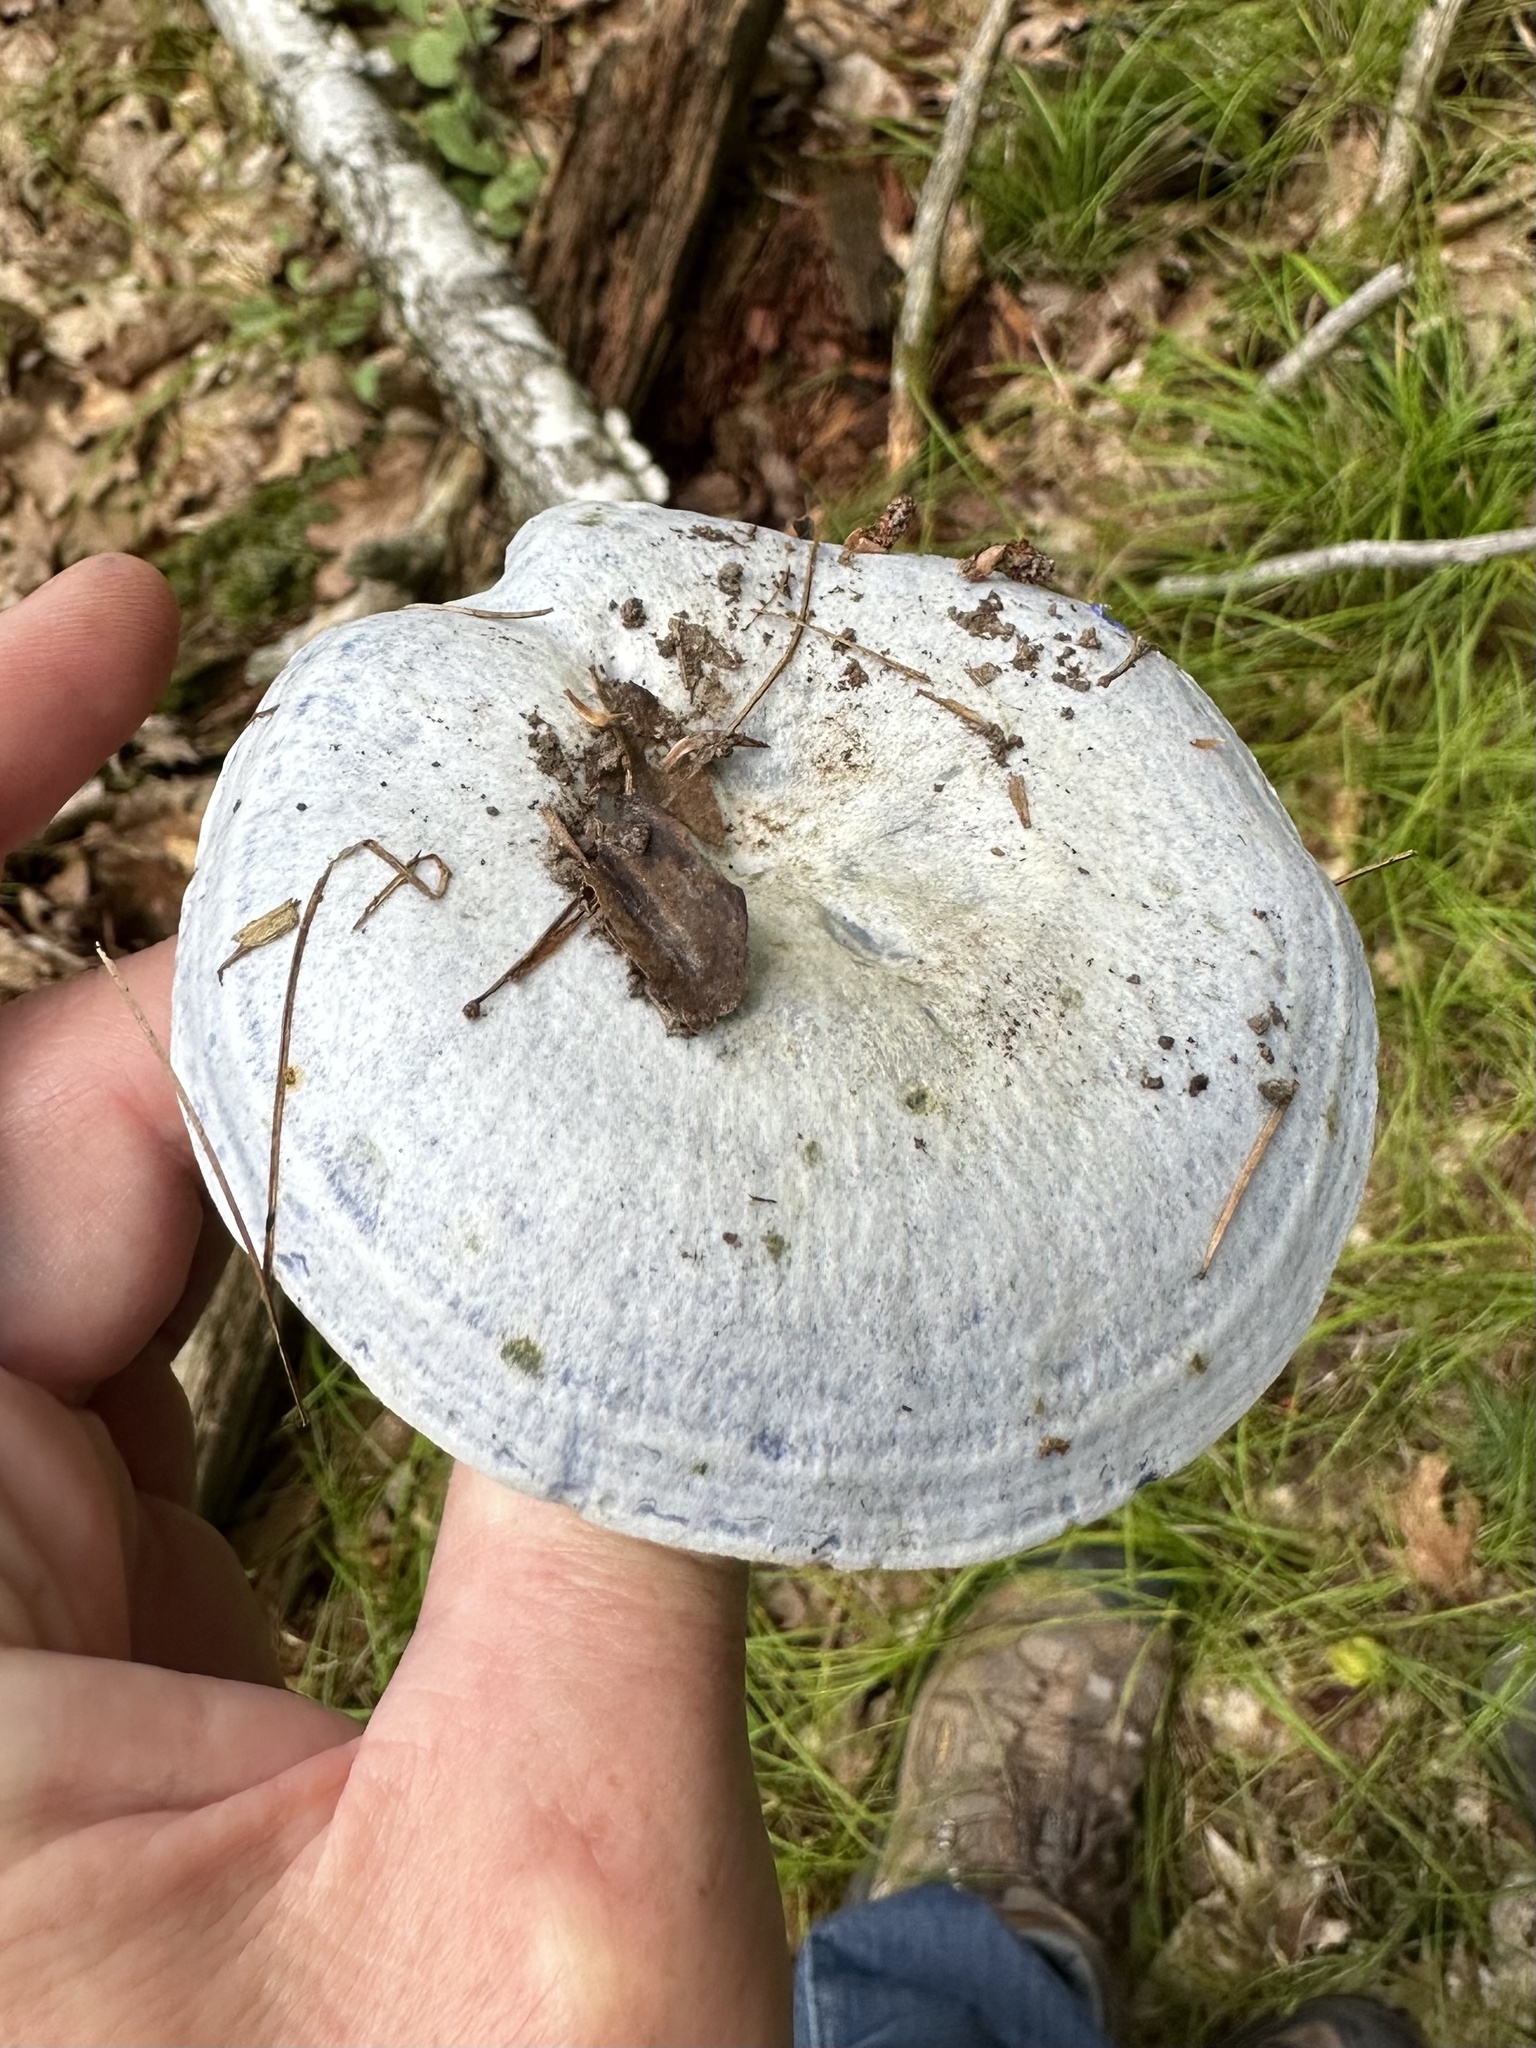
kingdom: Fungi
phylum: Basidiomycota
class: Agaricomycetes
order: Russulales
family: Russulaceae
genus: Lactarius
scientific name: Lactarius indigo
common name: Indigo milk cap
